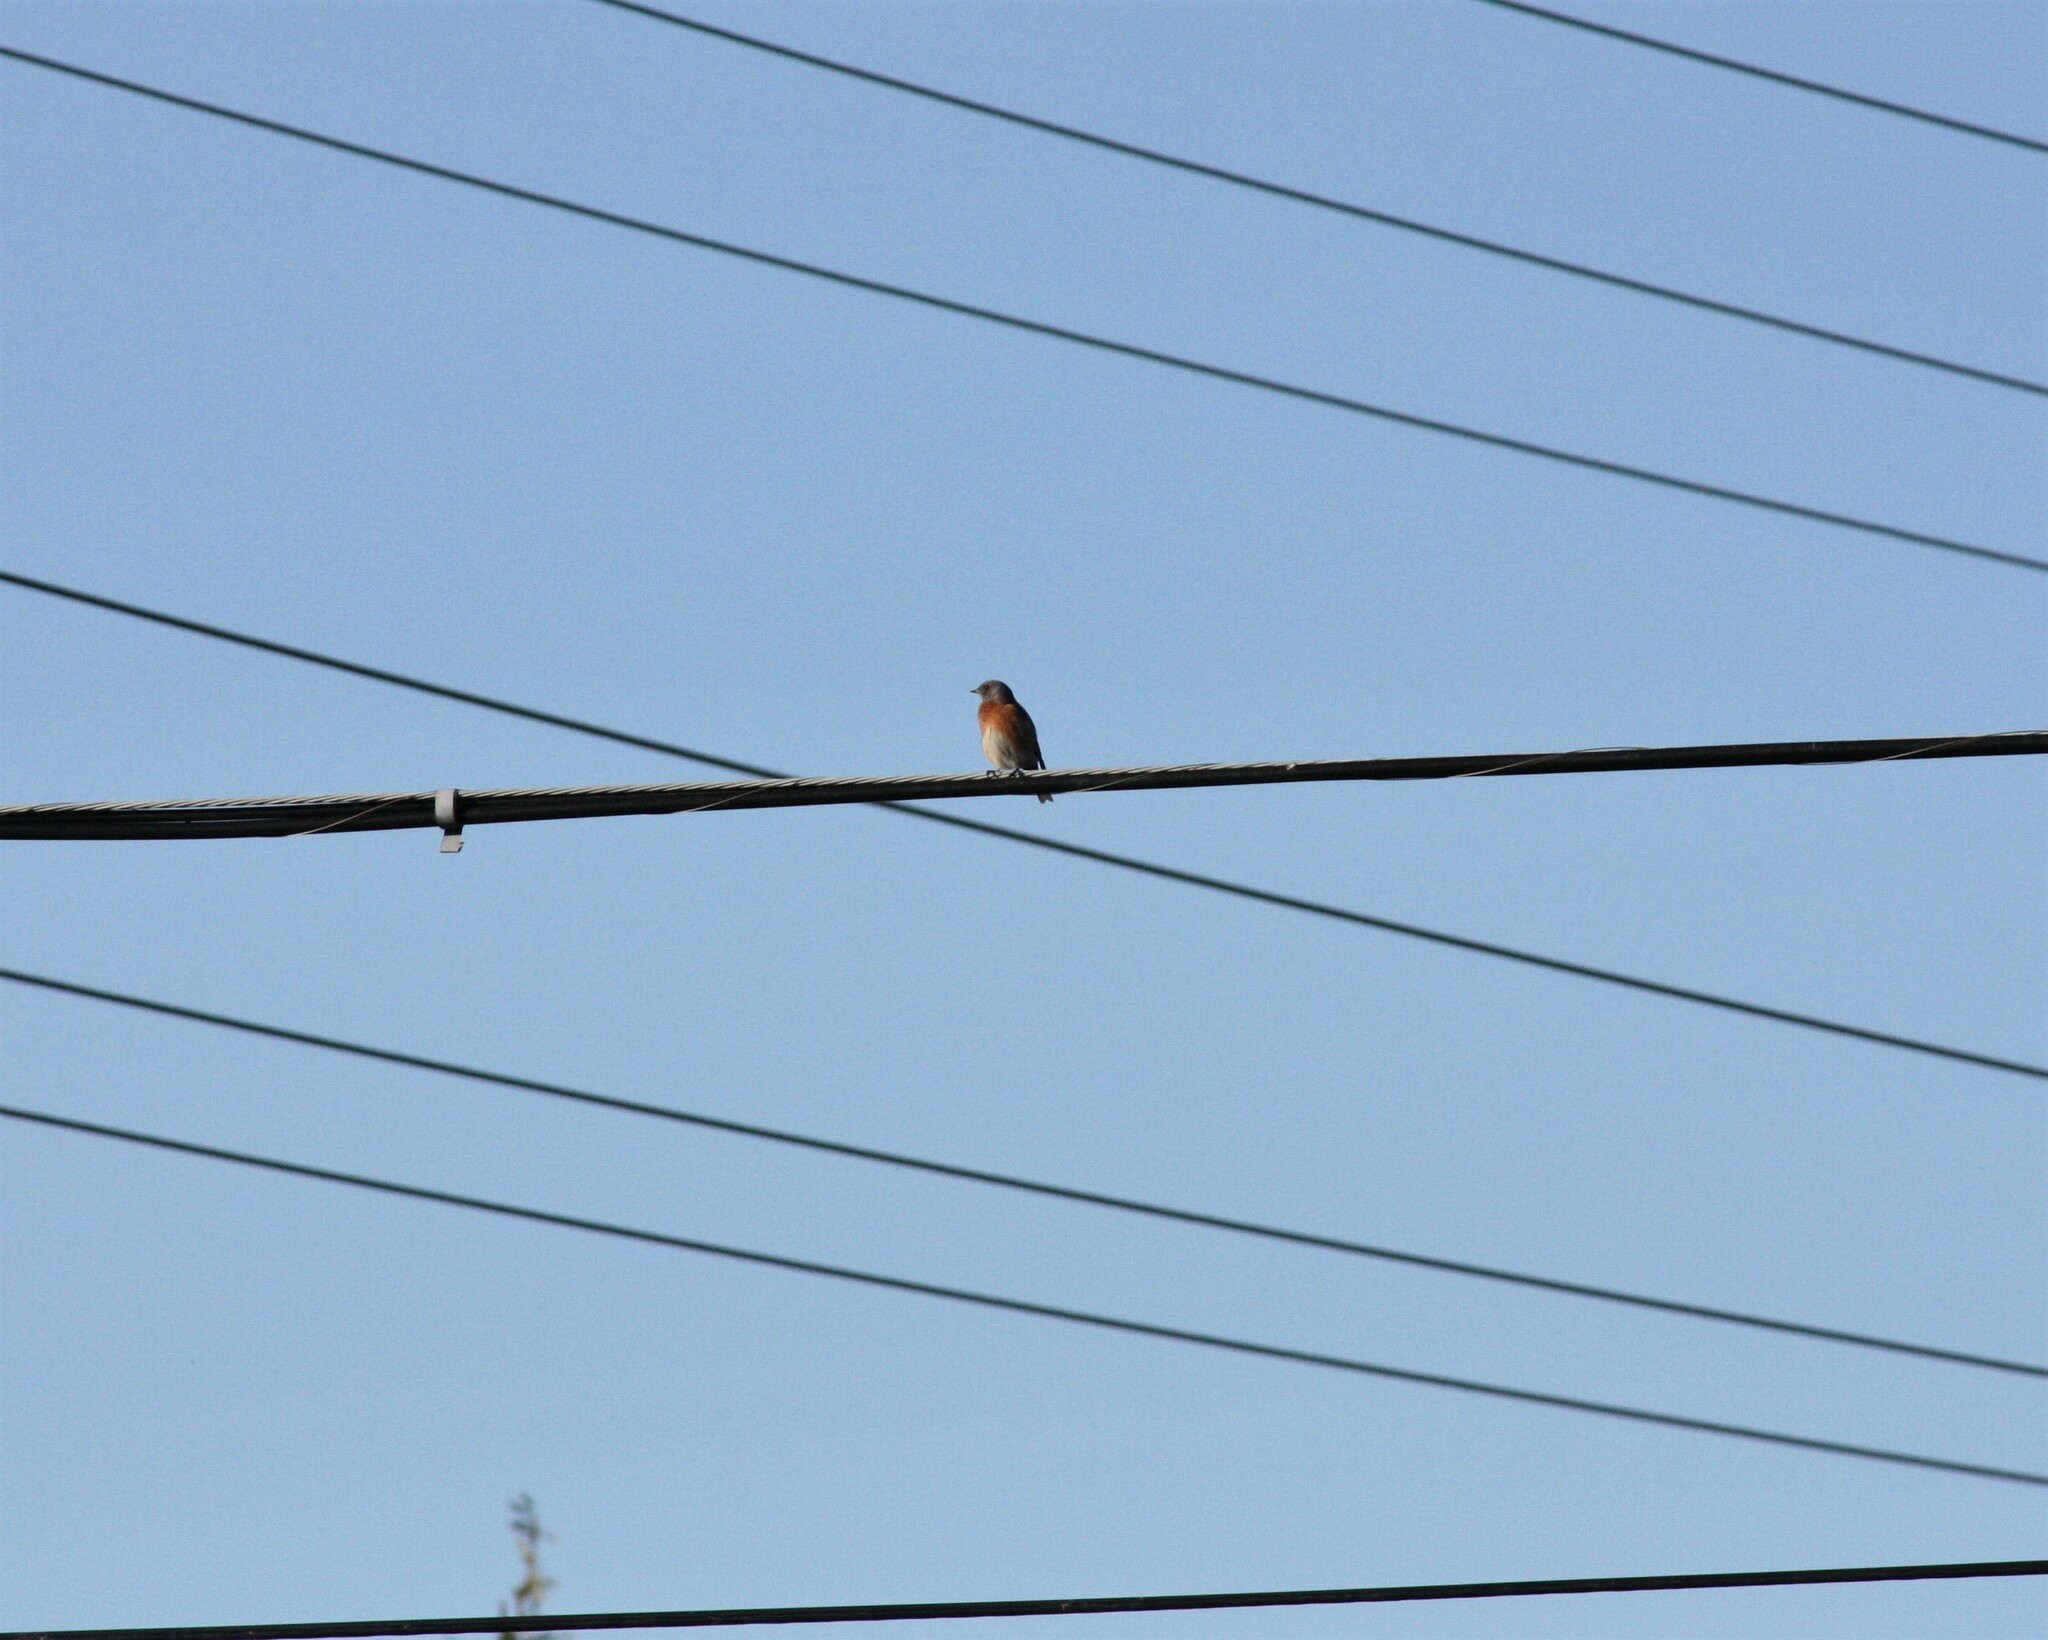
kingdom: Animalia
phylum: Chordata
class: Aves
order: Passeriformes
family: Turdidae
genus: Sialia
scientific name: Sialia mexicana
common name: Western bluebird
